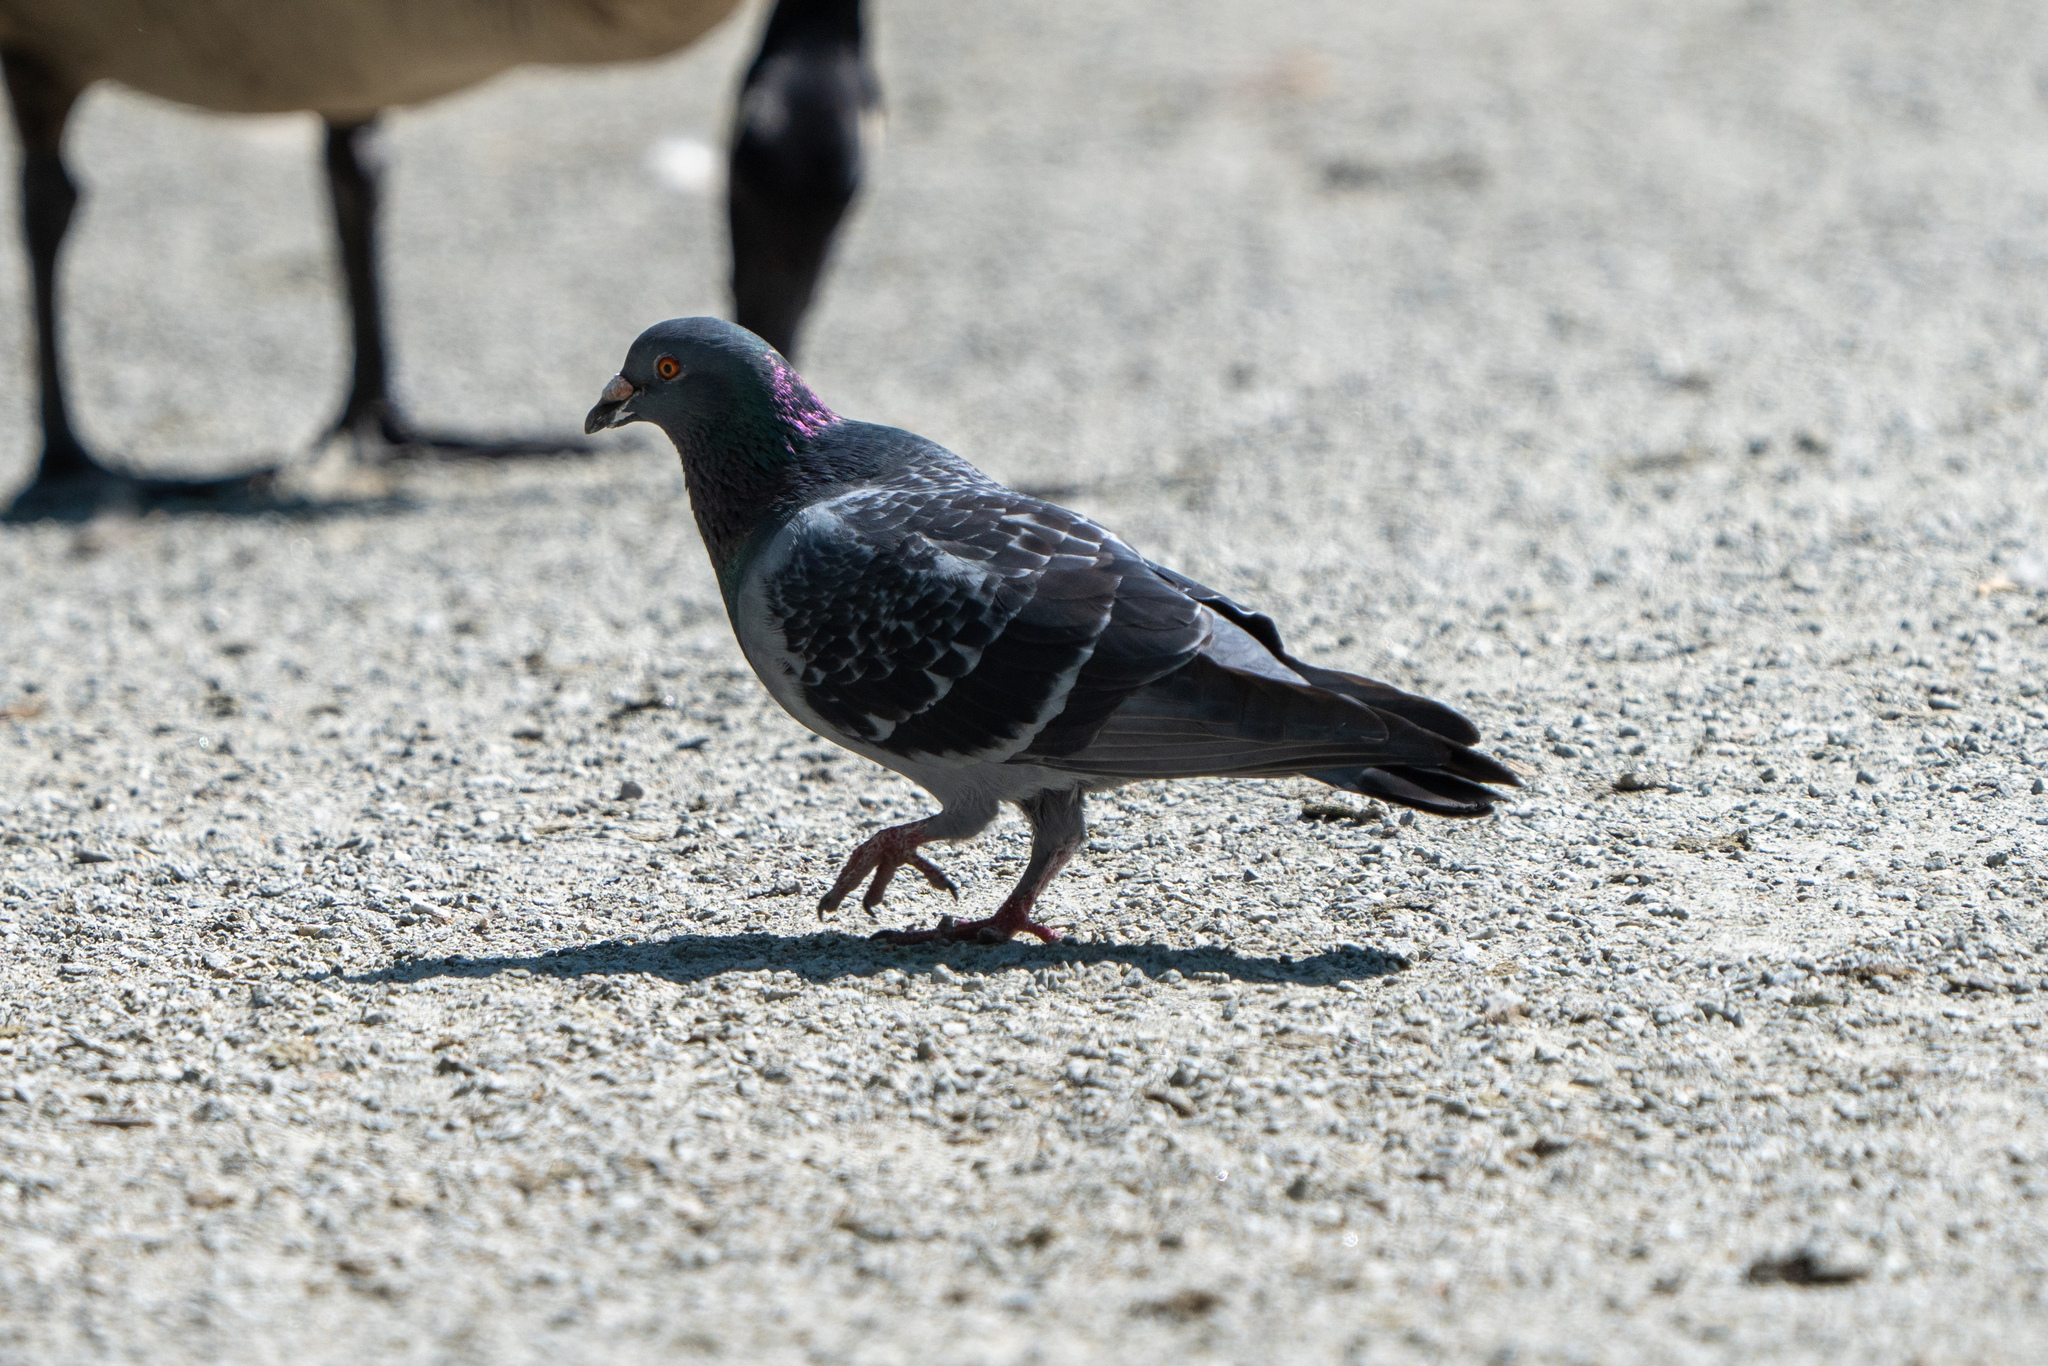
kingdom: Animalia
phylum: Chordata
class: Aves
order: Columbiformes
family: Columbidae
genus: Columba
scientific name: Columba livia
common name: Rock pigeon
